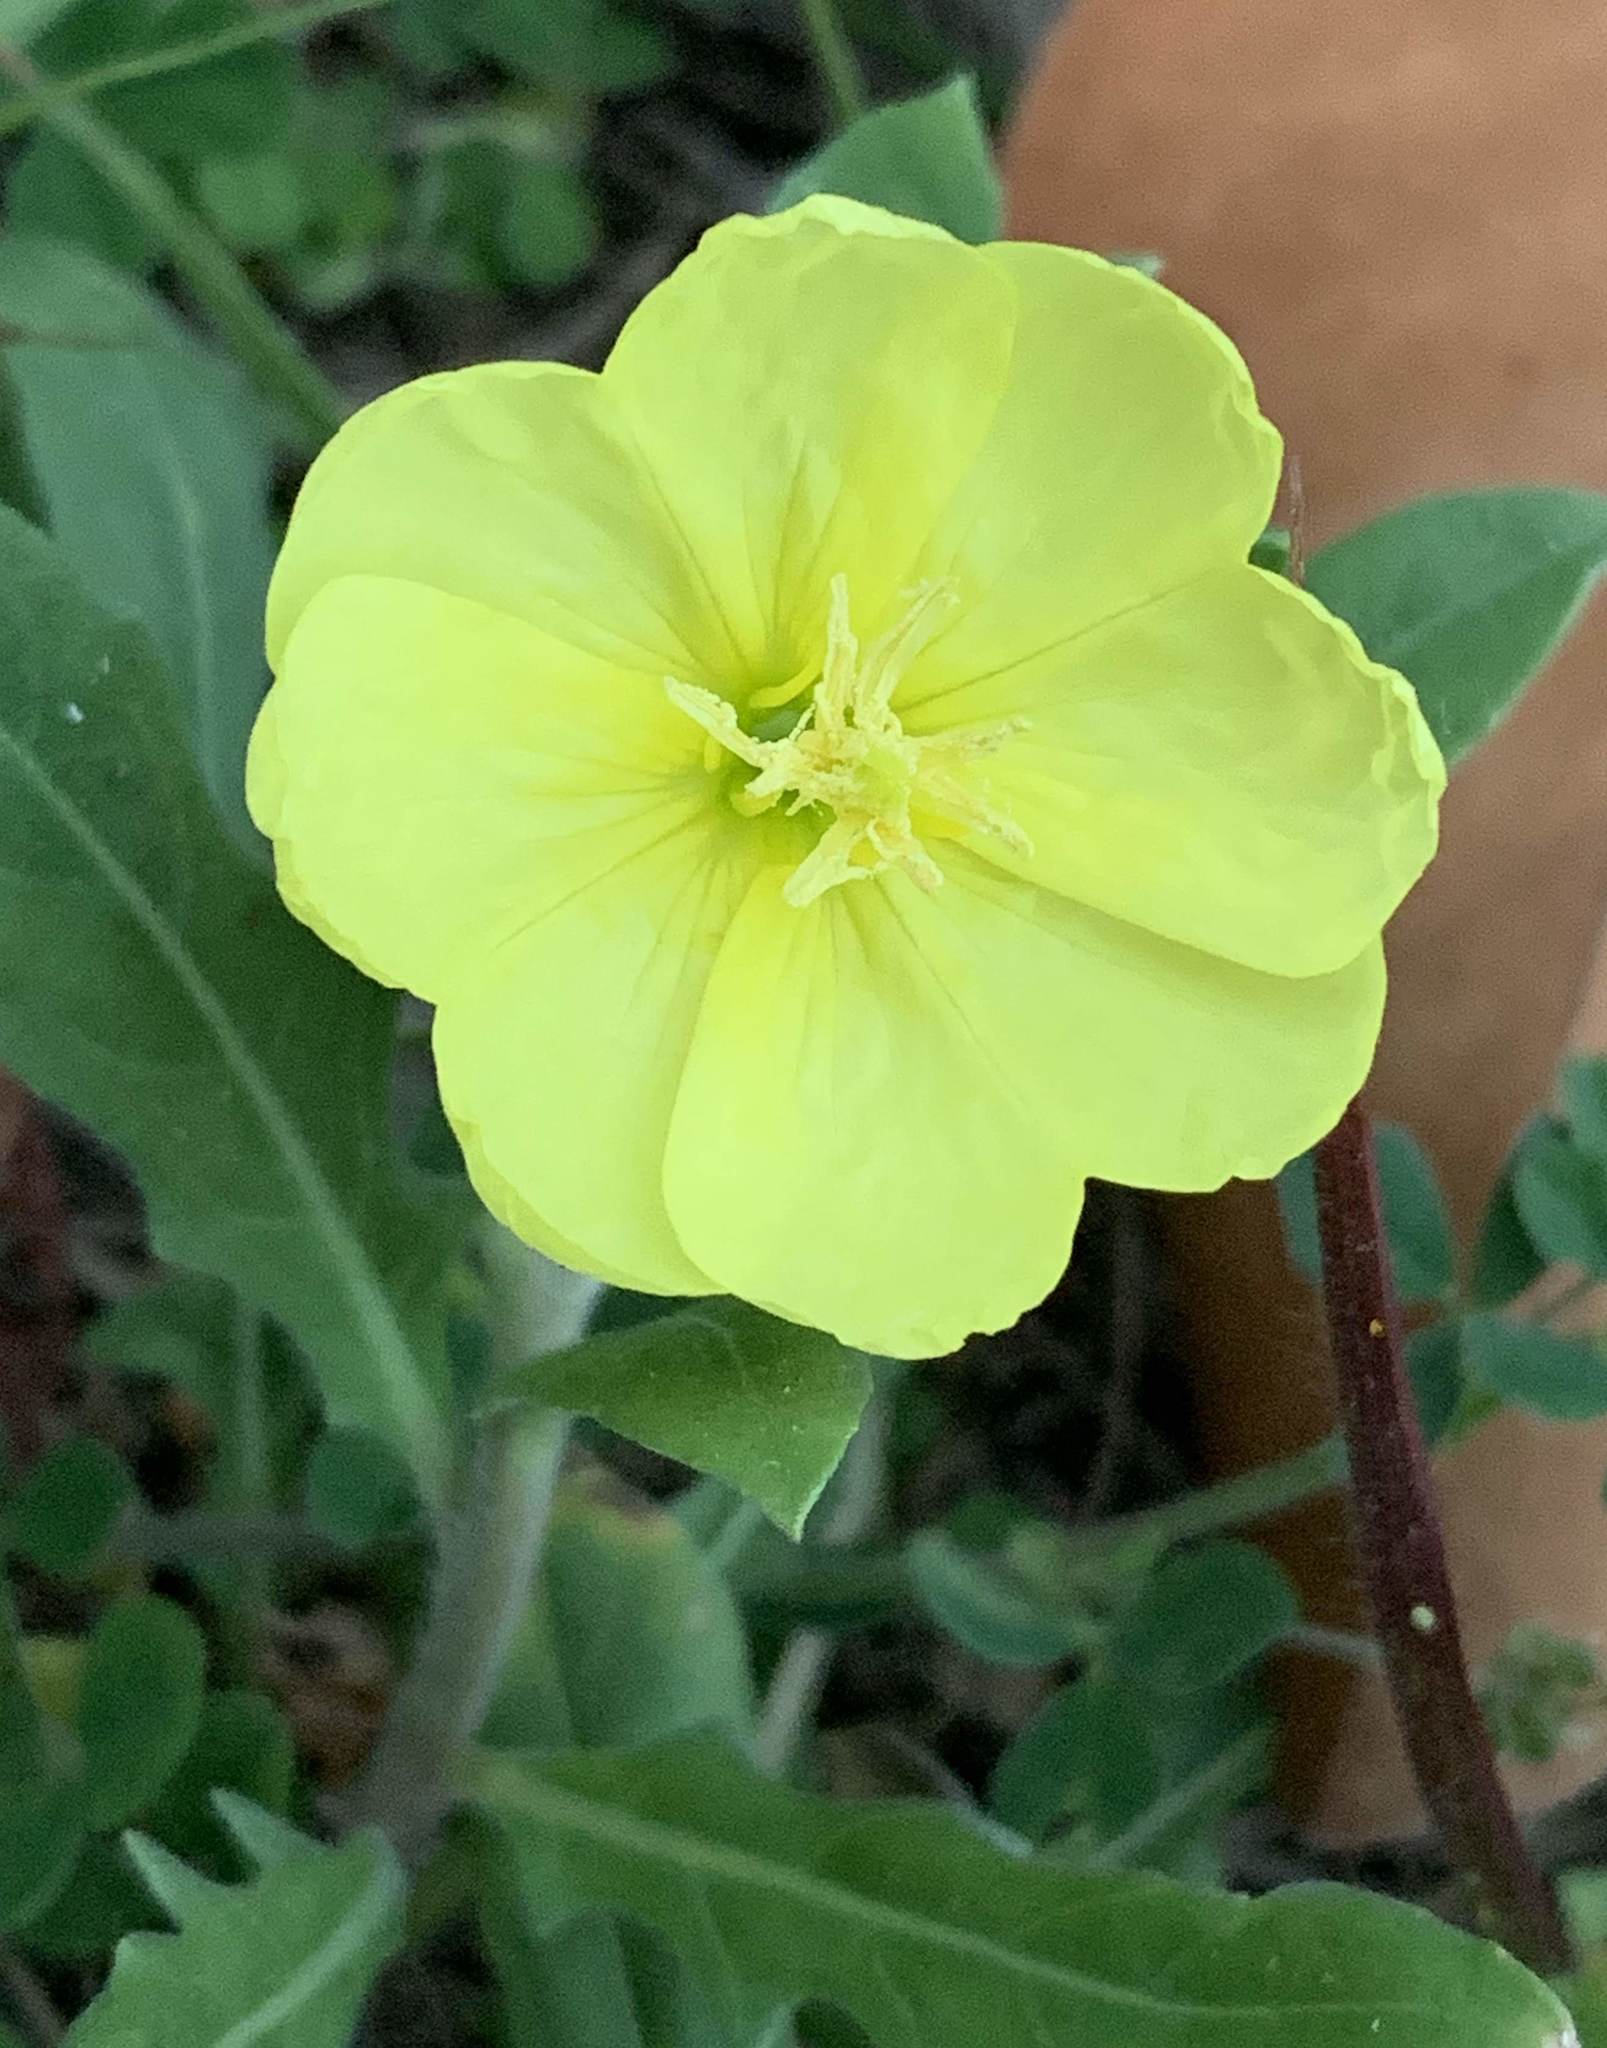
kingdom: Plantae
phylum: Tracheophyta
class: Magnoliopsida
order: Myrtales
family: Onagraceae
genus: Oenothera
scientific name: Oenothera laciniata
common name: Cut-leaved evening-primrose
